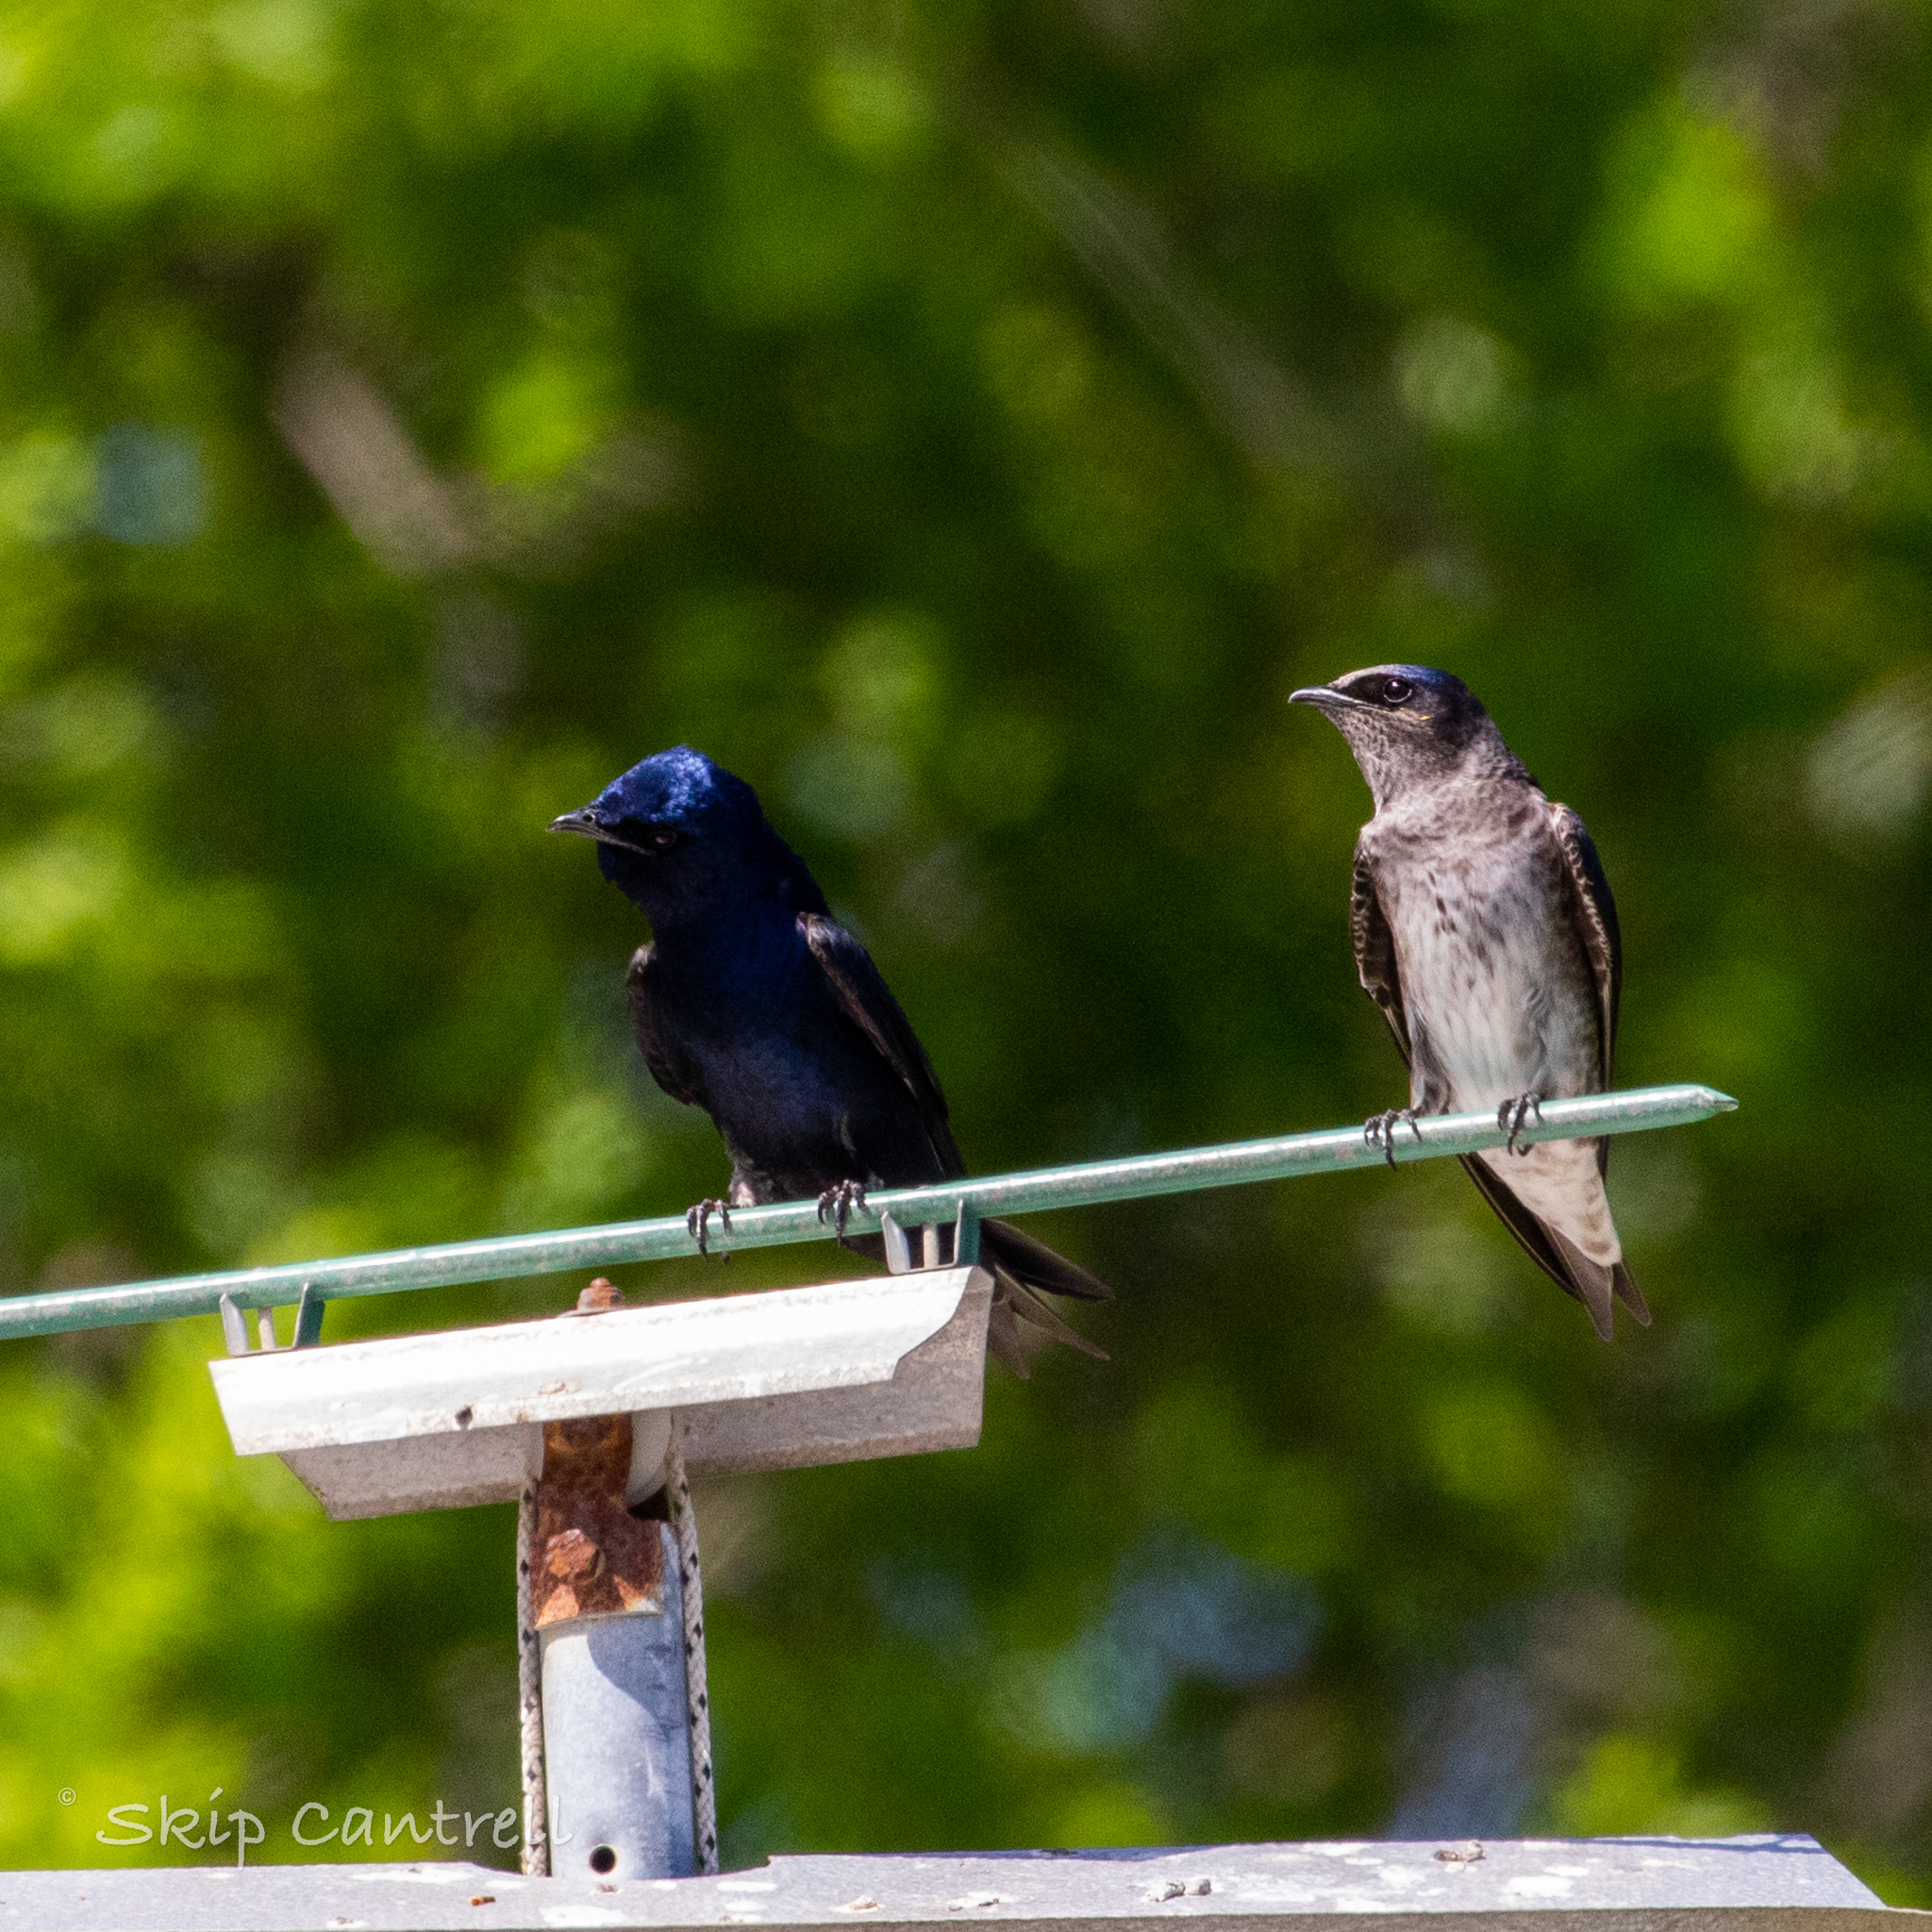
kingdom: Animalia
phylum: Chordata
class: Aves
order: Passeriformes
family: Hirundinidae
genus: Progne
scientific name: Progne subis
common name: Purple martin
